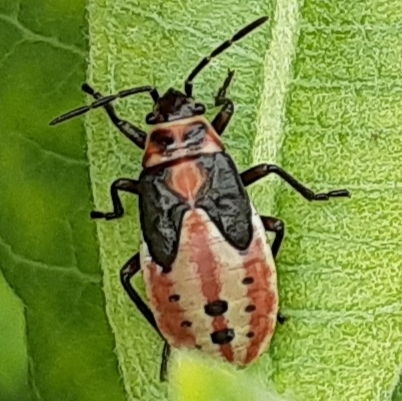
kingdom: Animalia
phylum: Arthropoda
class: Insecta
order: Hemiptera
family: Lygaeidae
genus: Lygaeus
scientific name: Lygaeus kalmii
